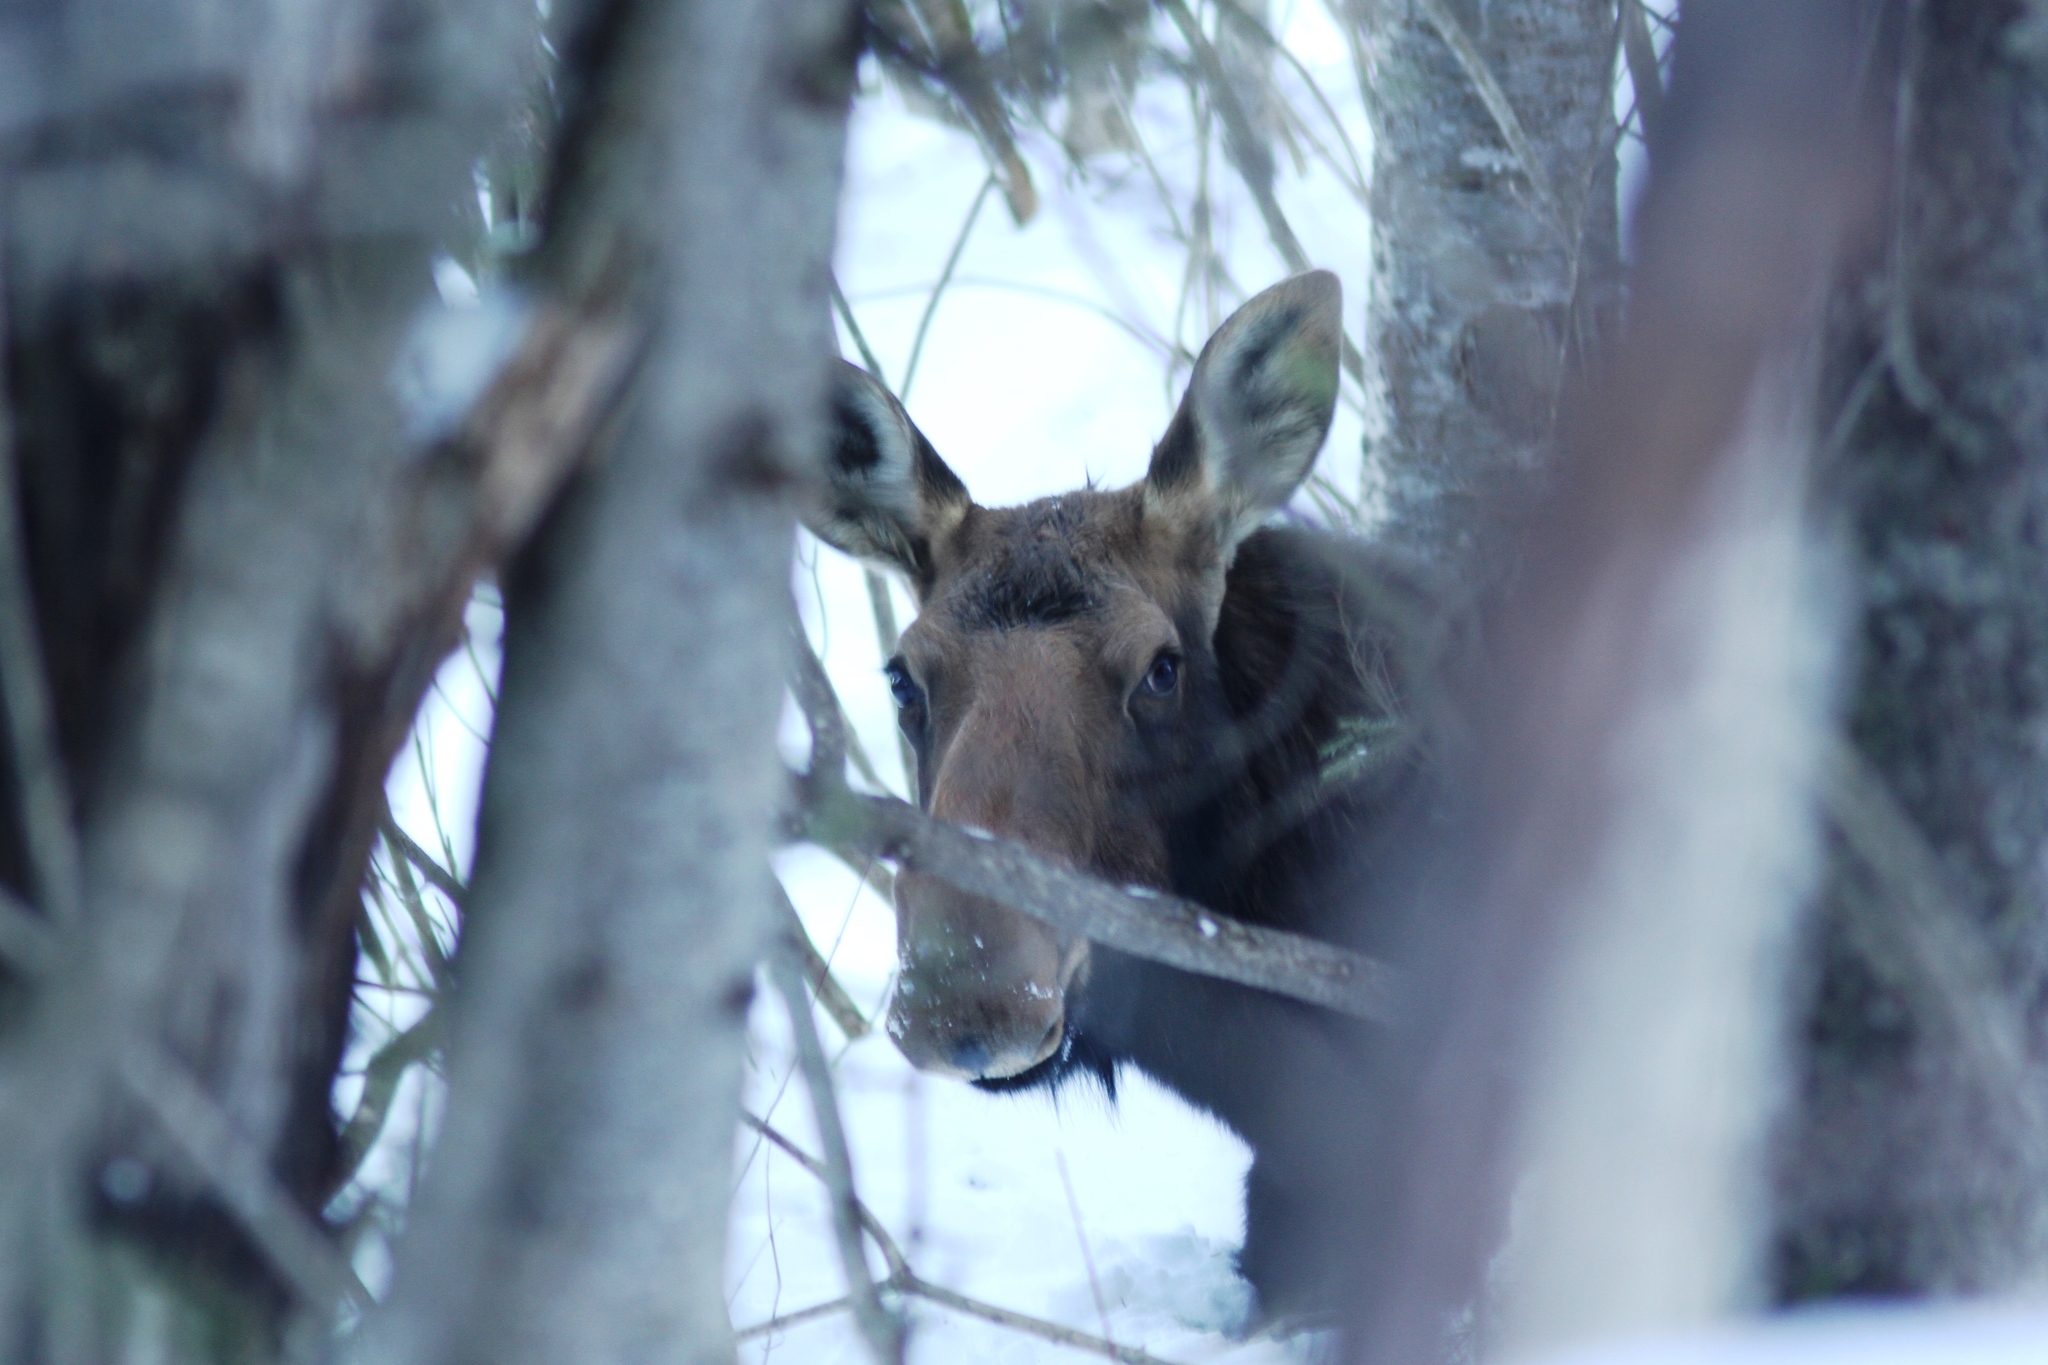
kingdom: Animalia
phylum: Chordata
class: Mammalia
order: Artiodactyla
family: Cervidae
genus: Alces
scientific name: Alces alces
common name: Moose
